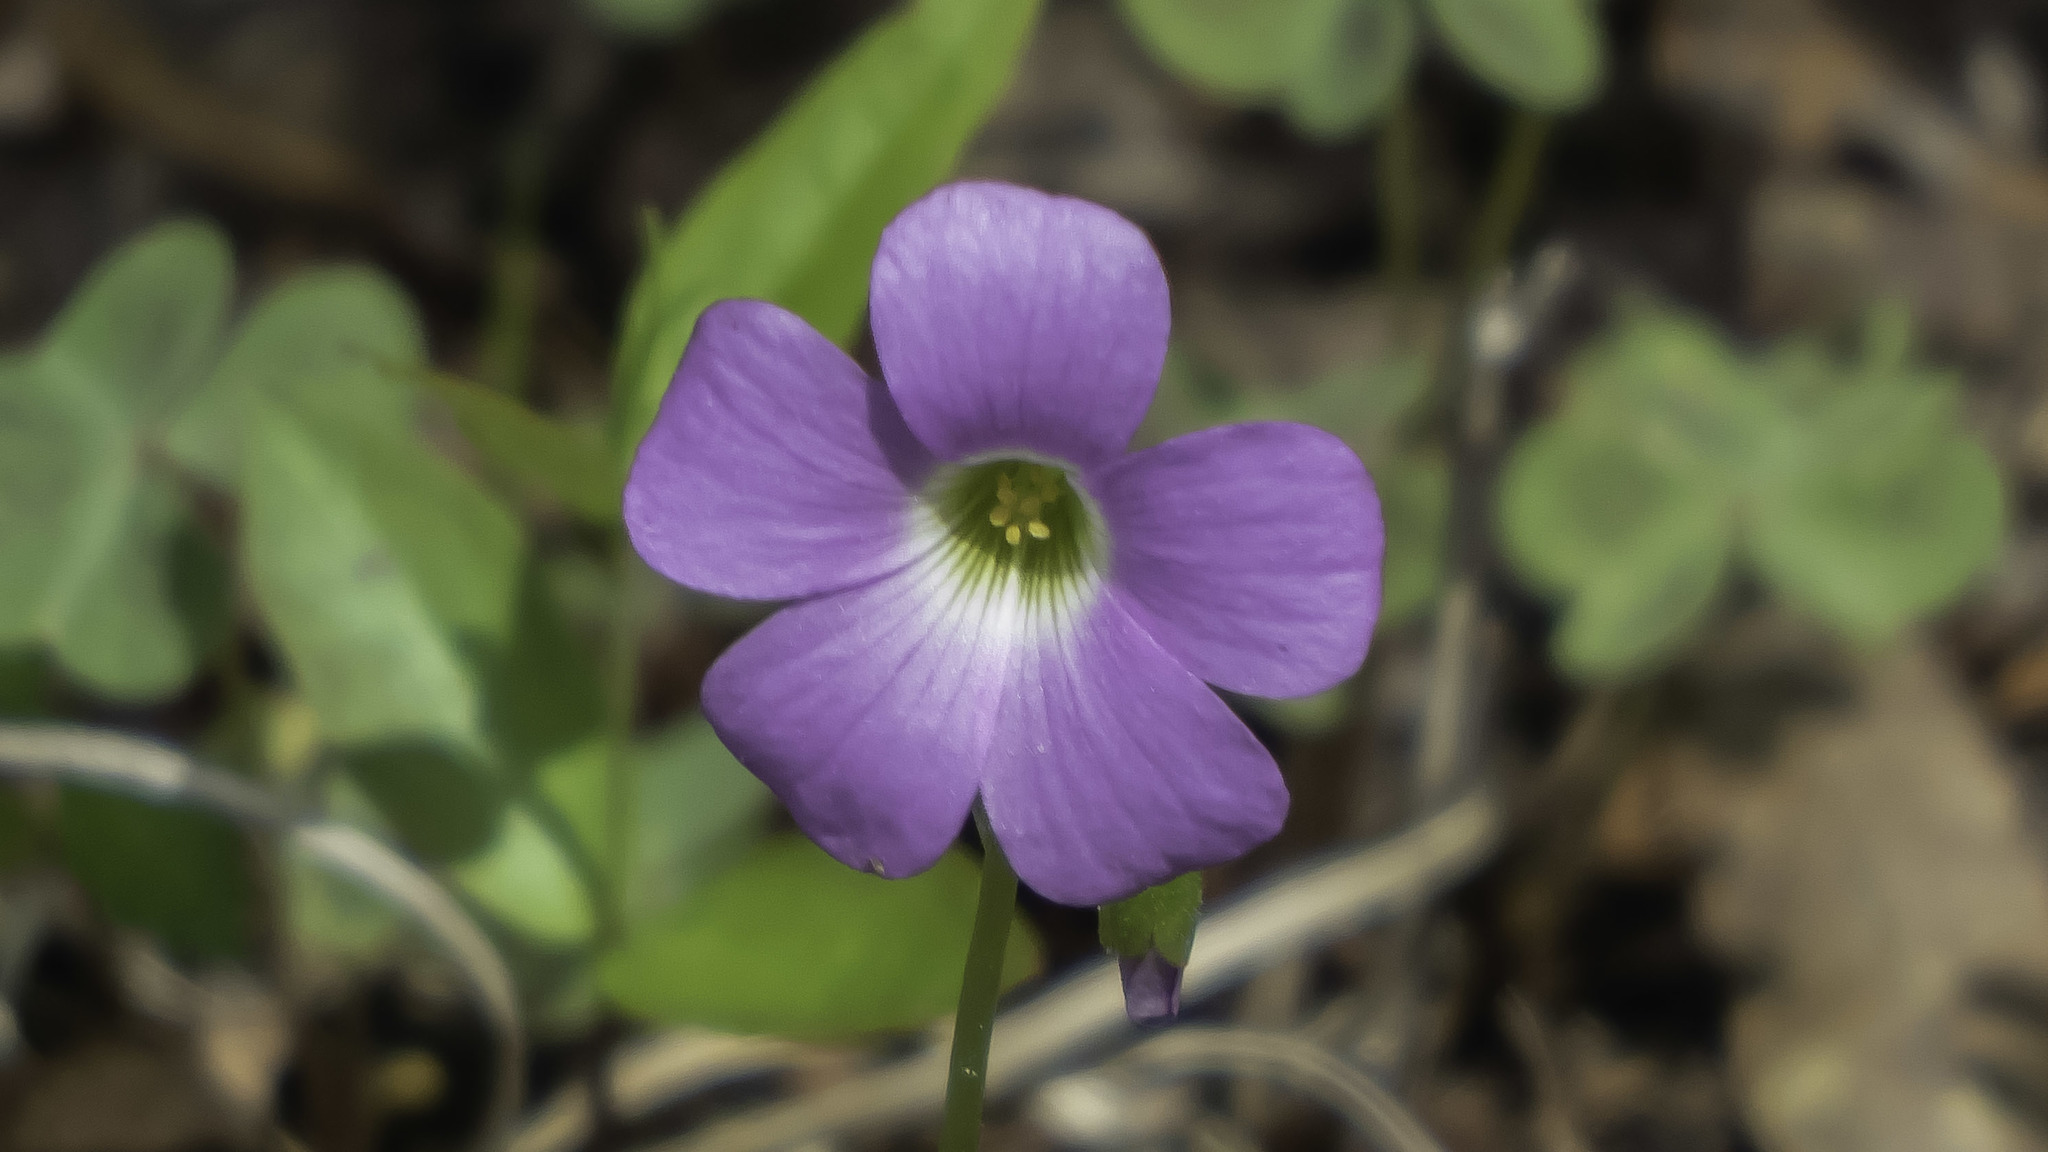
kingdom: Plantae
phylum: Tracheophyta
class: Magnoliopsida
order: Oxalidales
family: Oxalidaceae
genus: Oxalis
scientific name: Oxalis violacea
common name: Violet wood-sorrel
